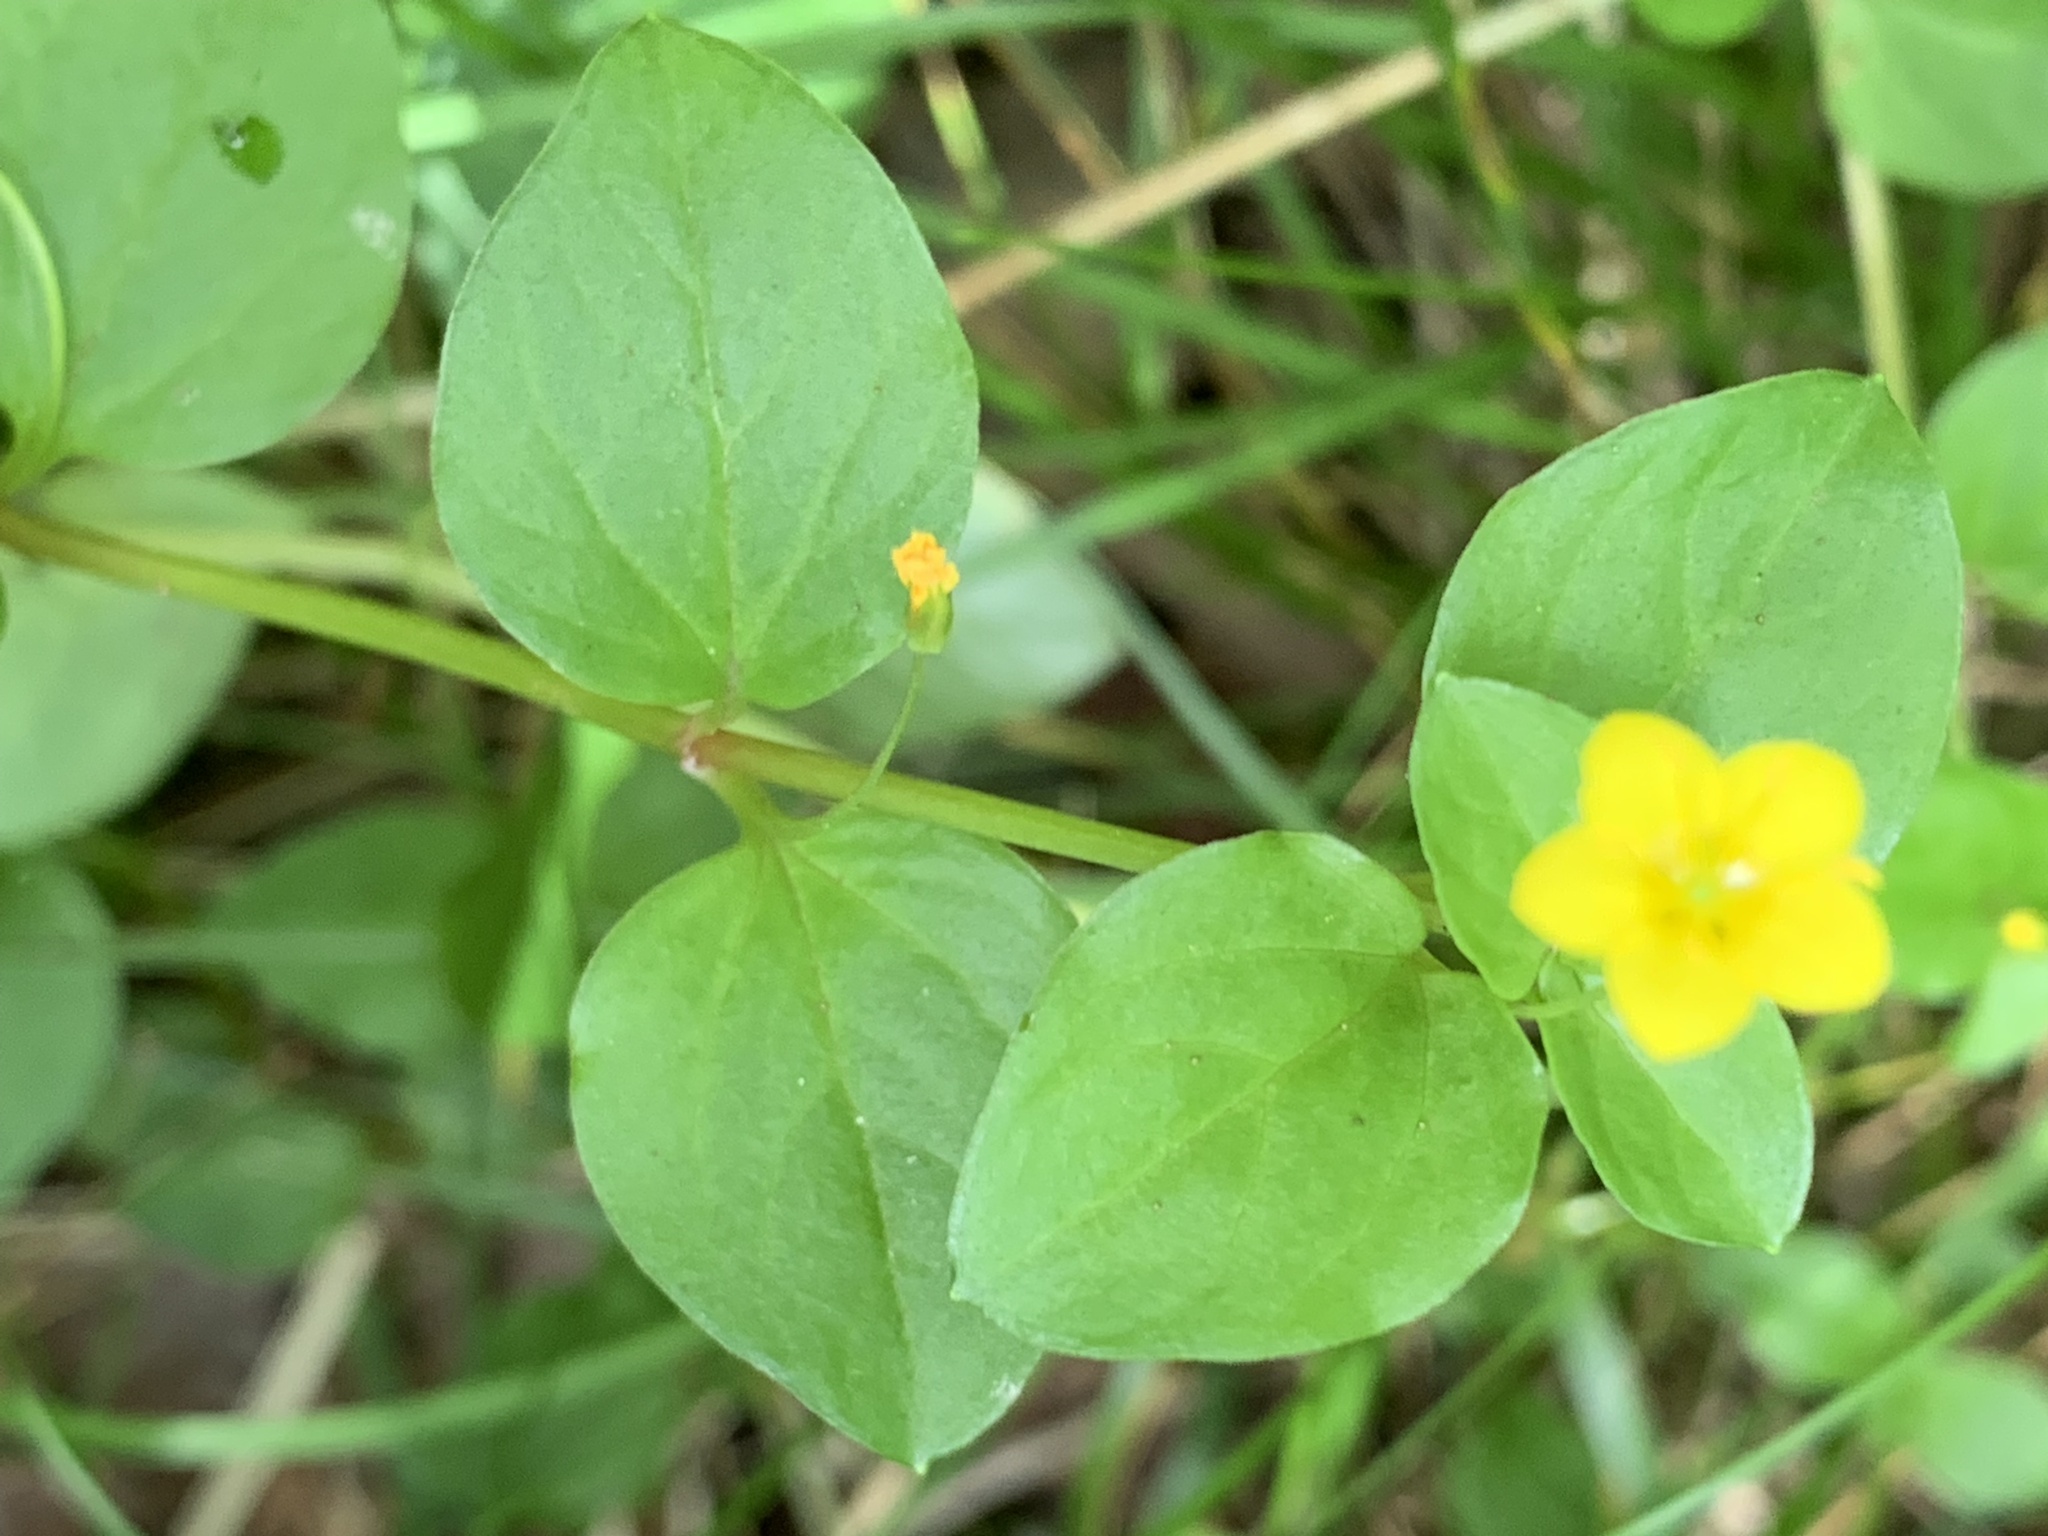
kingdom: Plantae
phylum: Tracheophyta
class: Magnoliopsida
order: Ericales
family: Primulaceae
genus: Lysimachia
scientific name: Lysimachia nummularia
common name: Moneywort
